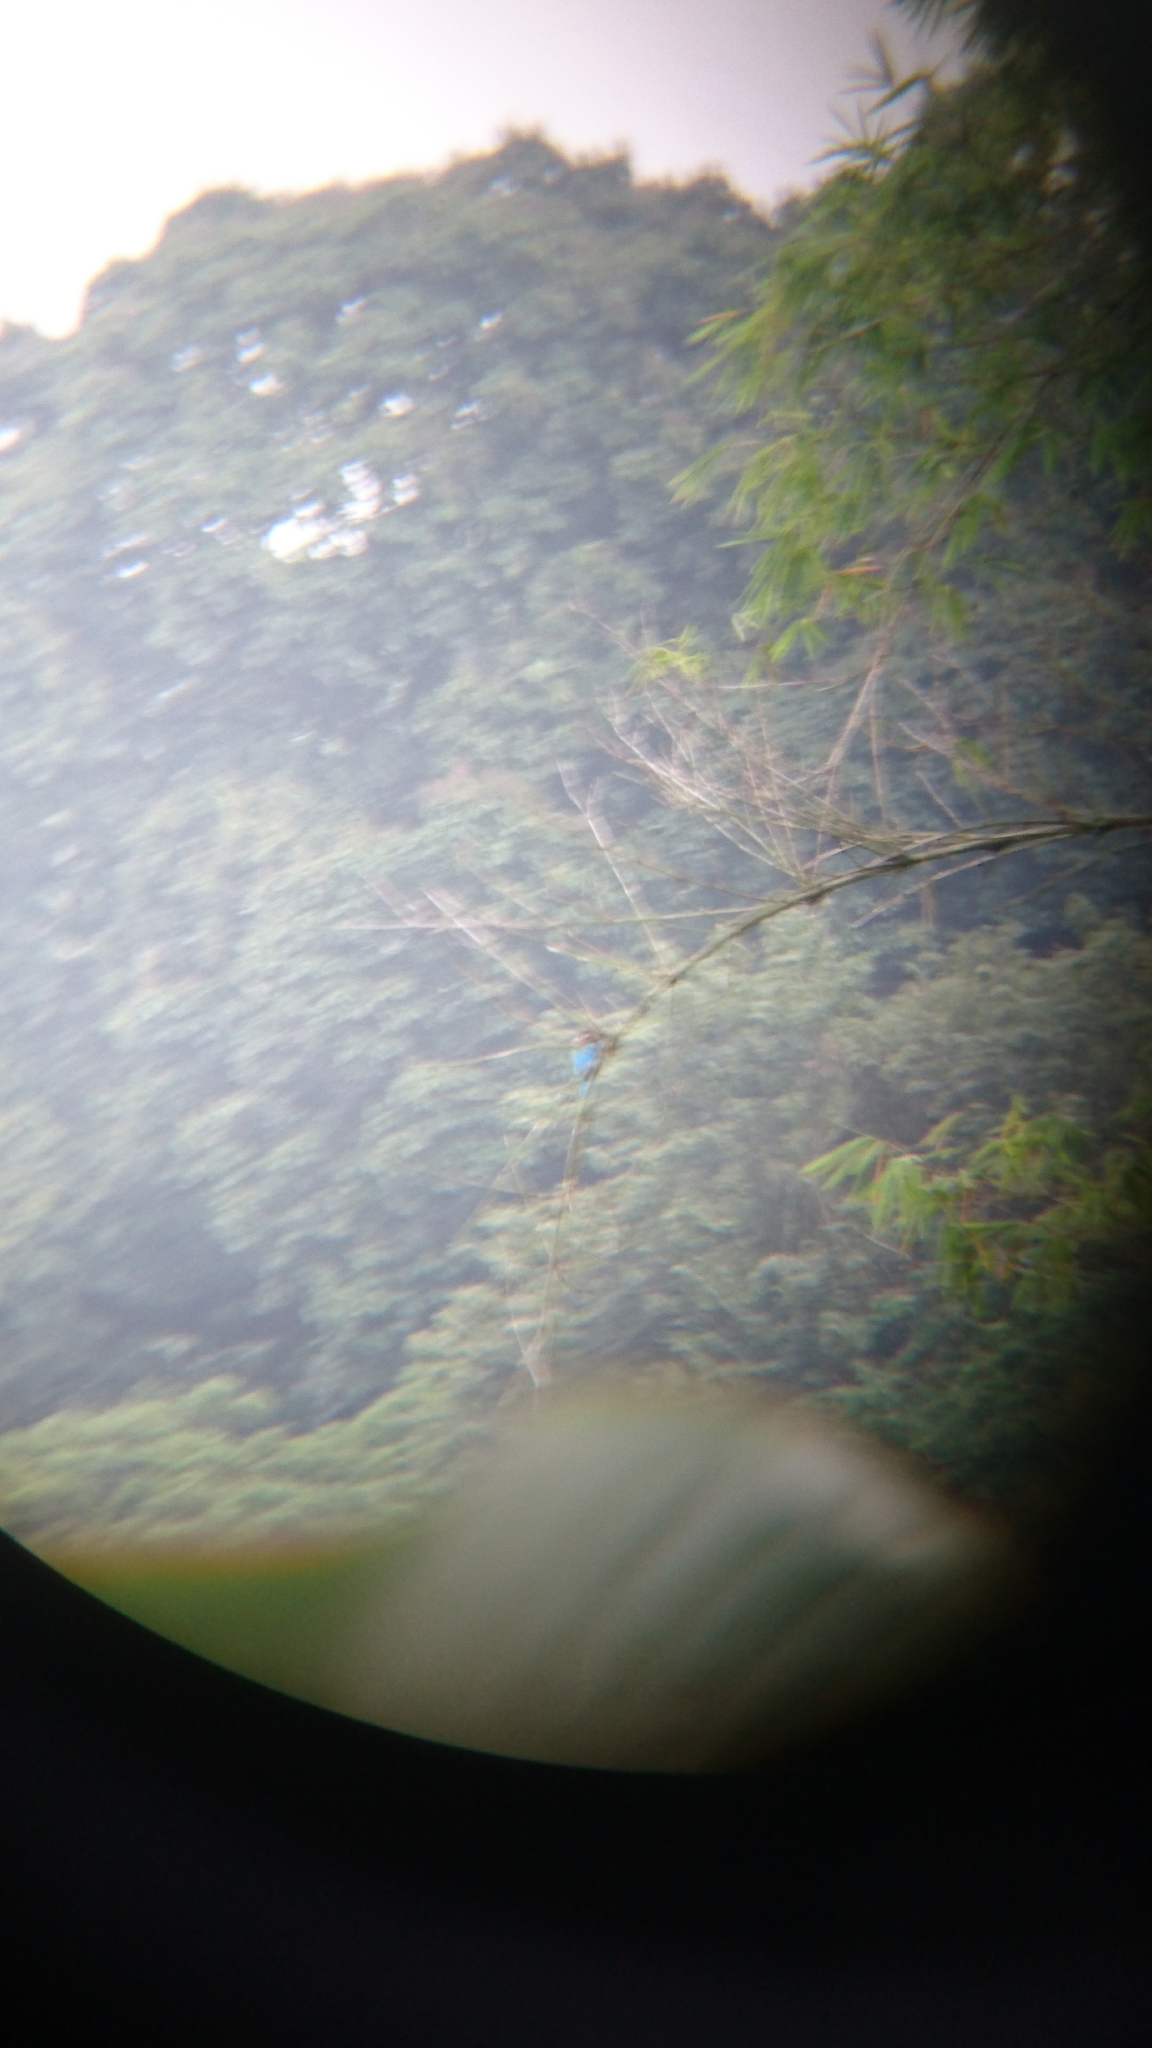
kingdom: Animalia
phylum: Chordata
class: Aves
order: Coraciiformes
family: Alcedinidae
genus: Halcyon
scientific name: Halcyon smyrnensis
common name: White-throated kingfisher
